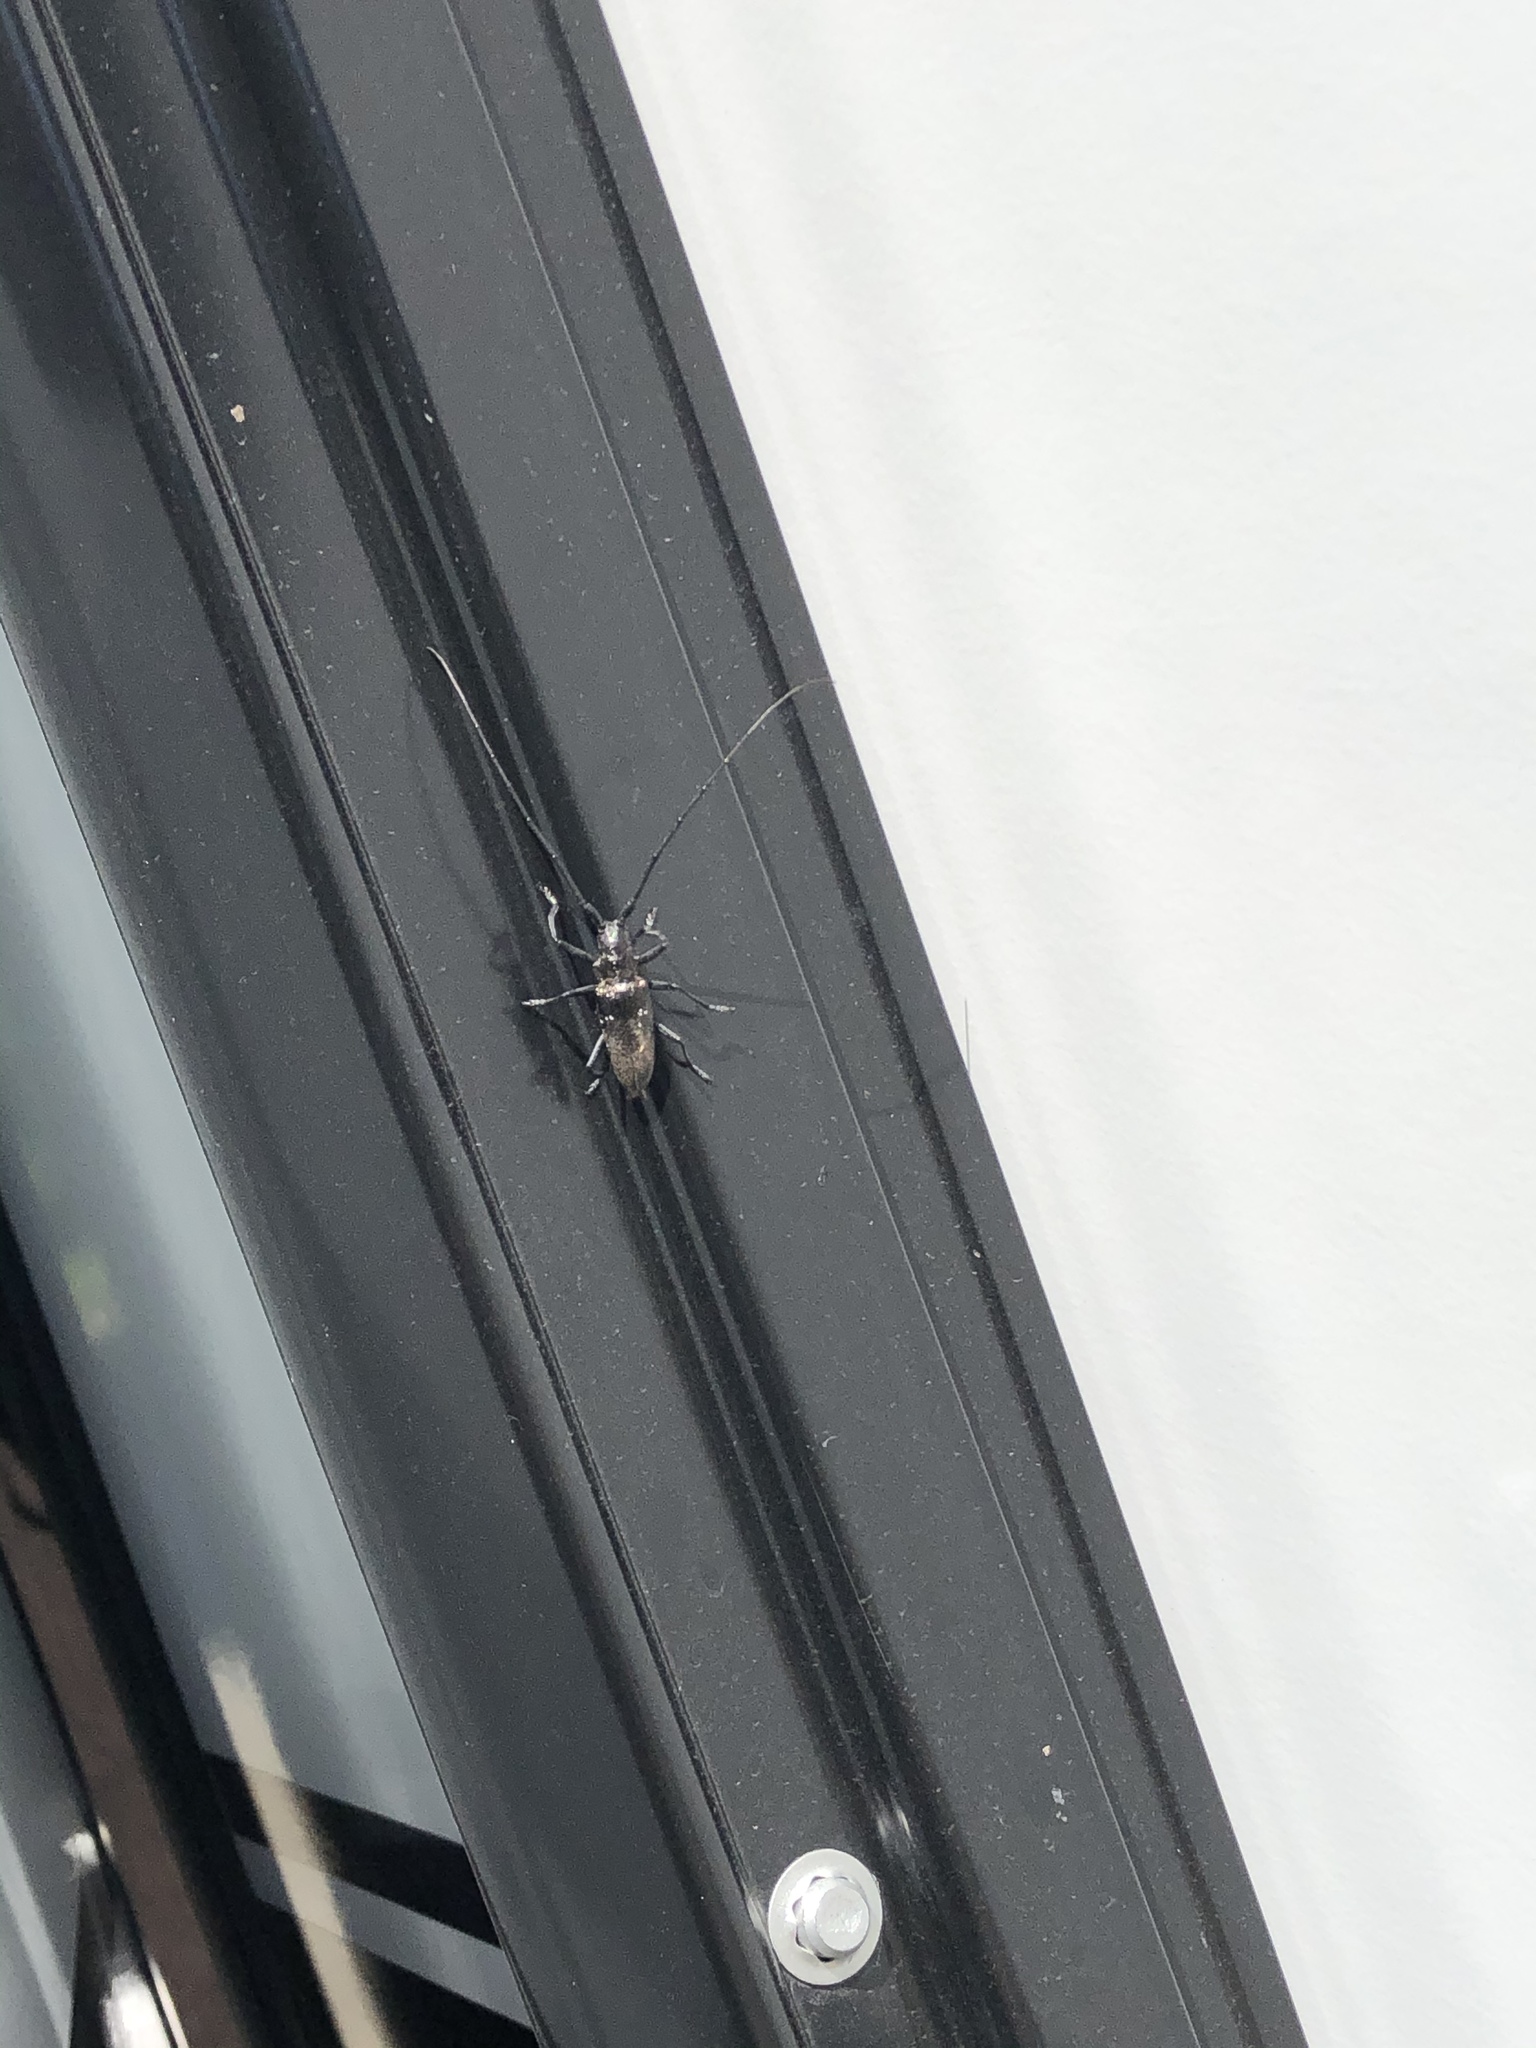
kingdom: Animalia
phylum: Arthropoda
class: Insecta
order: Coleoptera
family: Cerambycidae
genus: Monochamus
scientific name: Monochamus scutellatus
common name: White-spotted sawyer beetle
